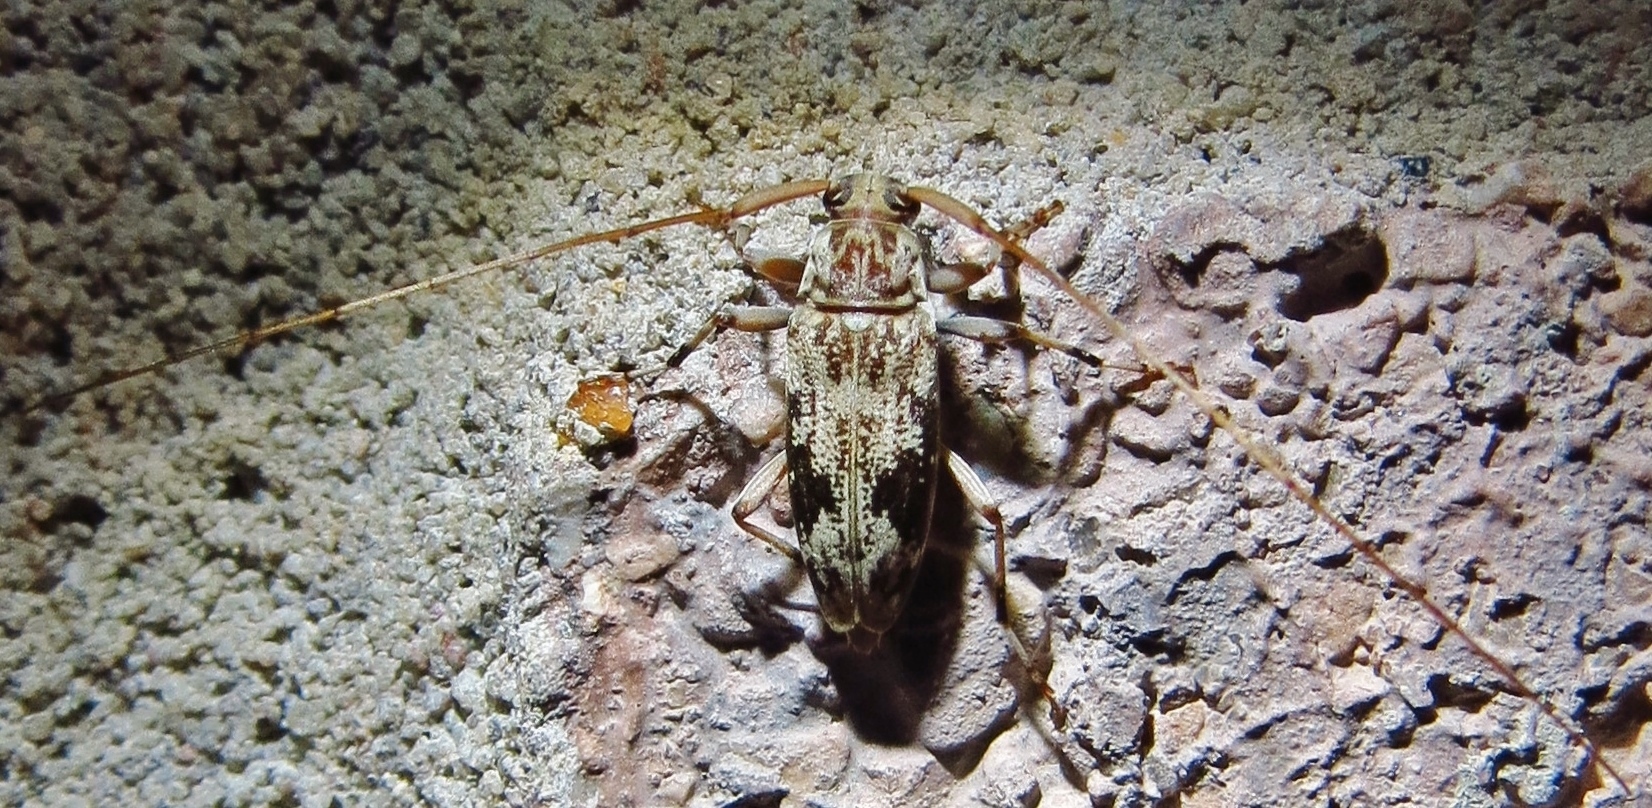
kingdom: Animalia
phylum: Arthropoda
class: Insecta
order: Coleoptera
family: Cerambycidae
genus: Lepturges
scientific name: Lepturges angulatus
